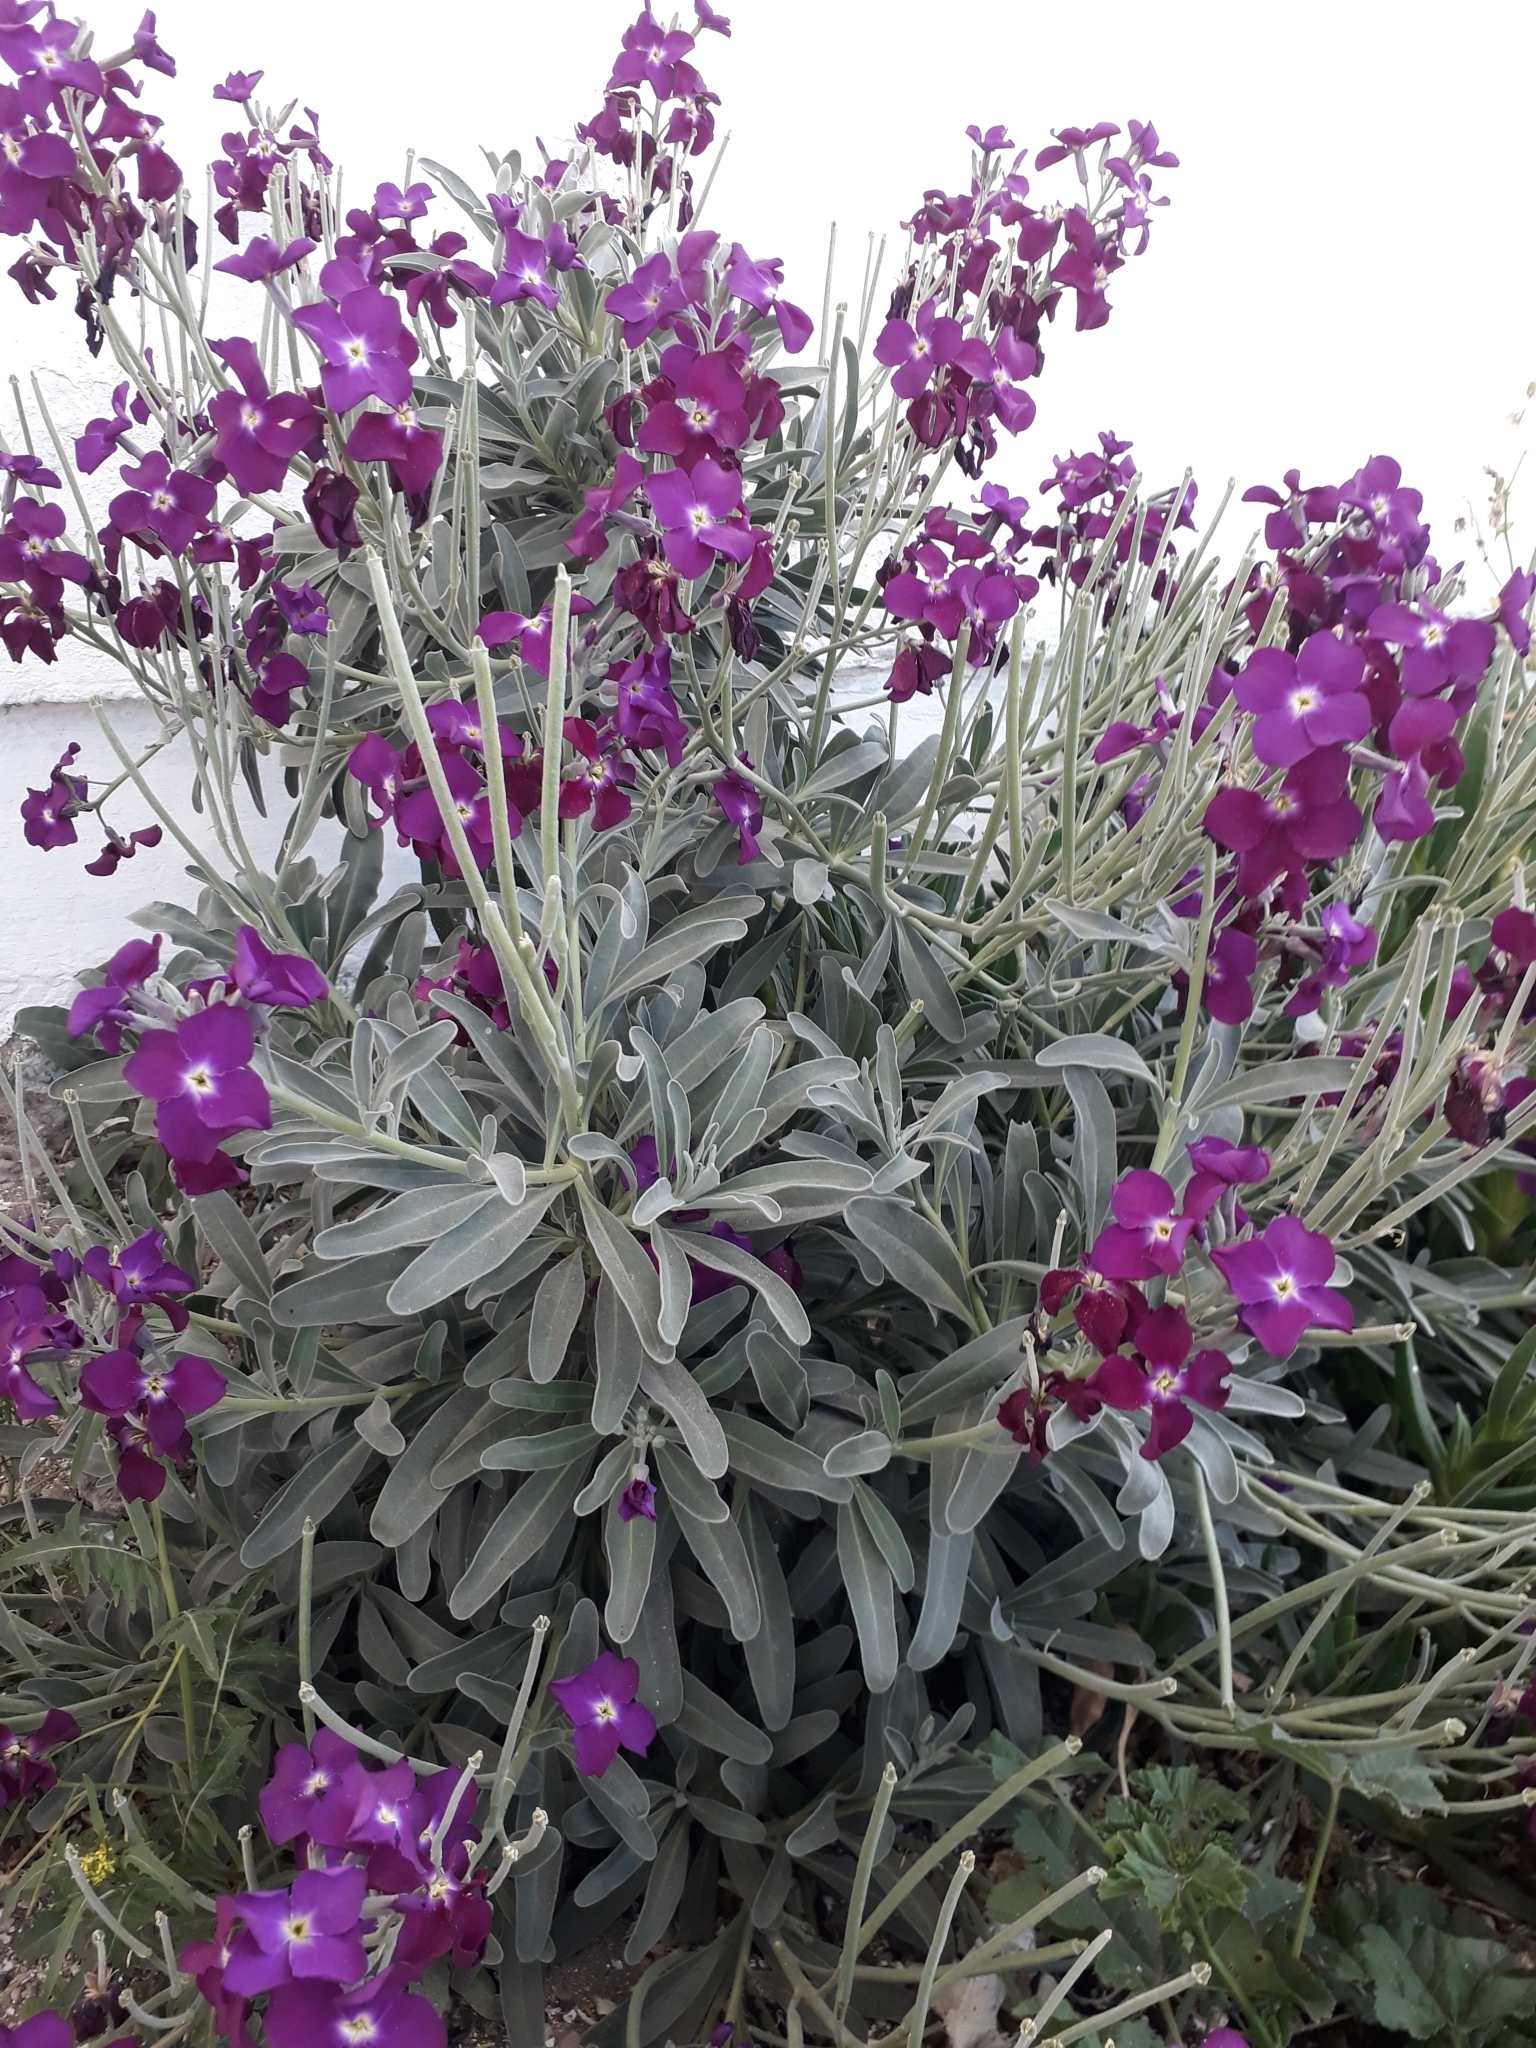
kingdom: Plantae
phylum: Tracheophyta
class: Magnoliopsida
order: Brassicales
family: Brassicaceae
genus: Matthiola
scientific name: Matthiola incana
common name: Hoary stock
